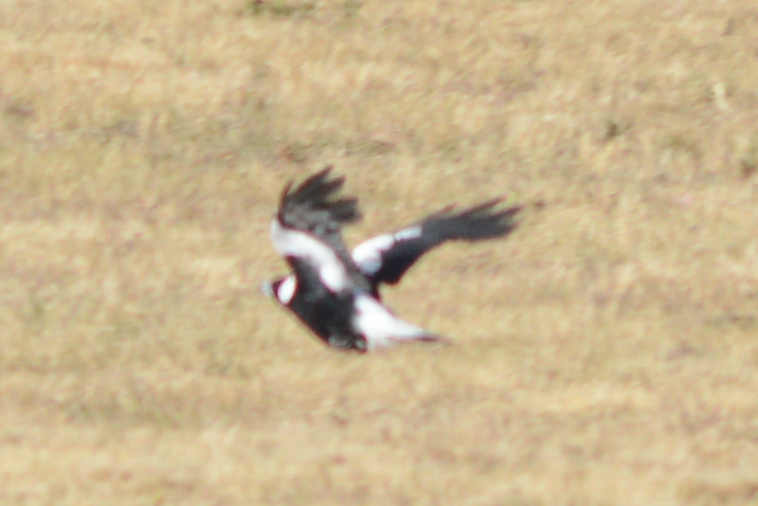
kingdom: Animalia
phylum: Chordata
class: Aves
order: Passeriformes
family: Cracticidae
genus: Gymnorhina
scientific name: Gymnorhina tibicen
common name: Australian magpie
